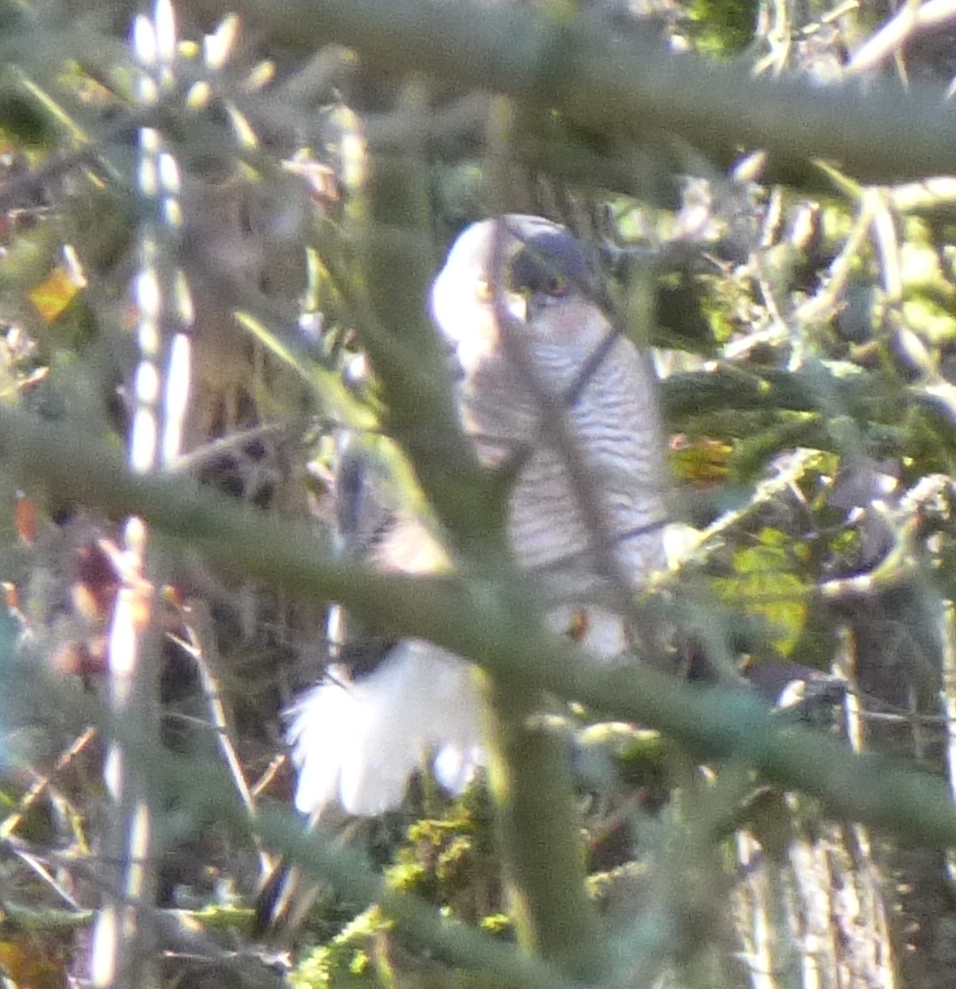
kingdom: Animalia
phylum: Chordata
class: Aves
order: Accipitriformes
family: Accipitridae
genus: Accipiter
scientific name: Accipiter nisus
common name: Eurasian sparrowhawk
